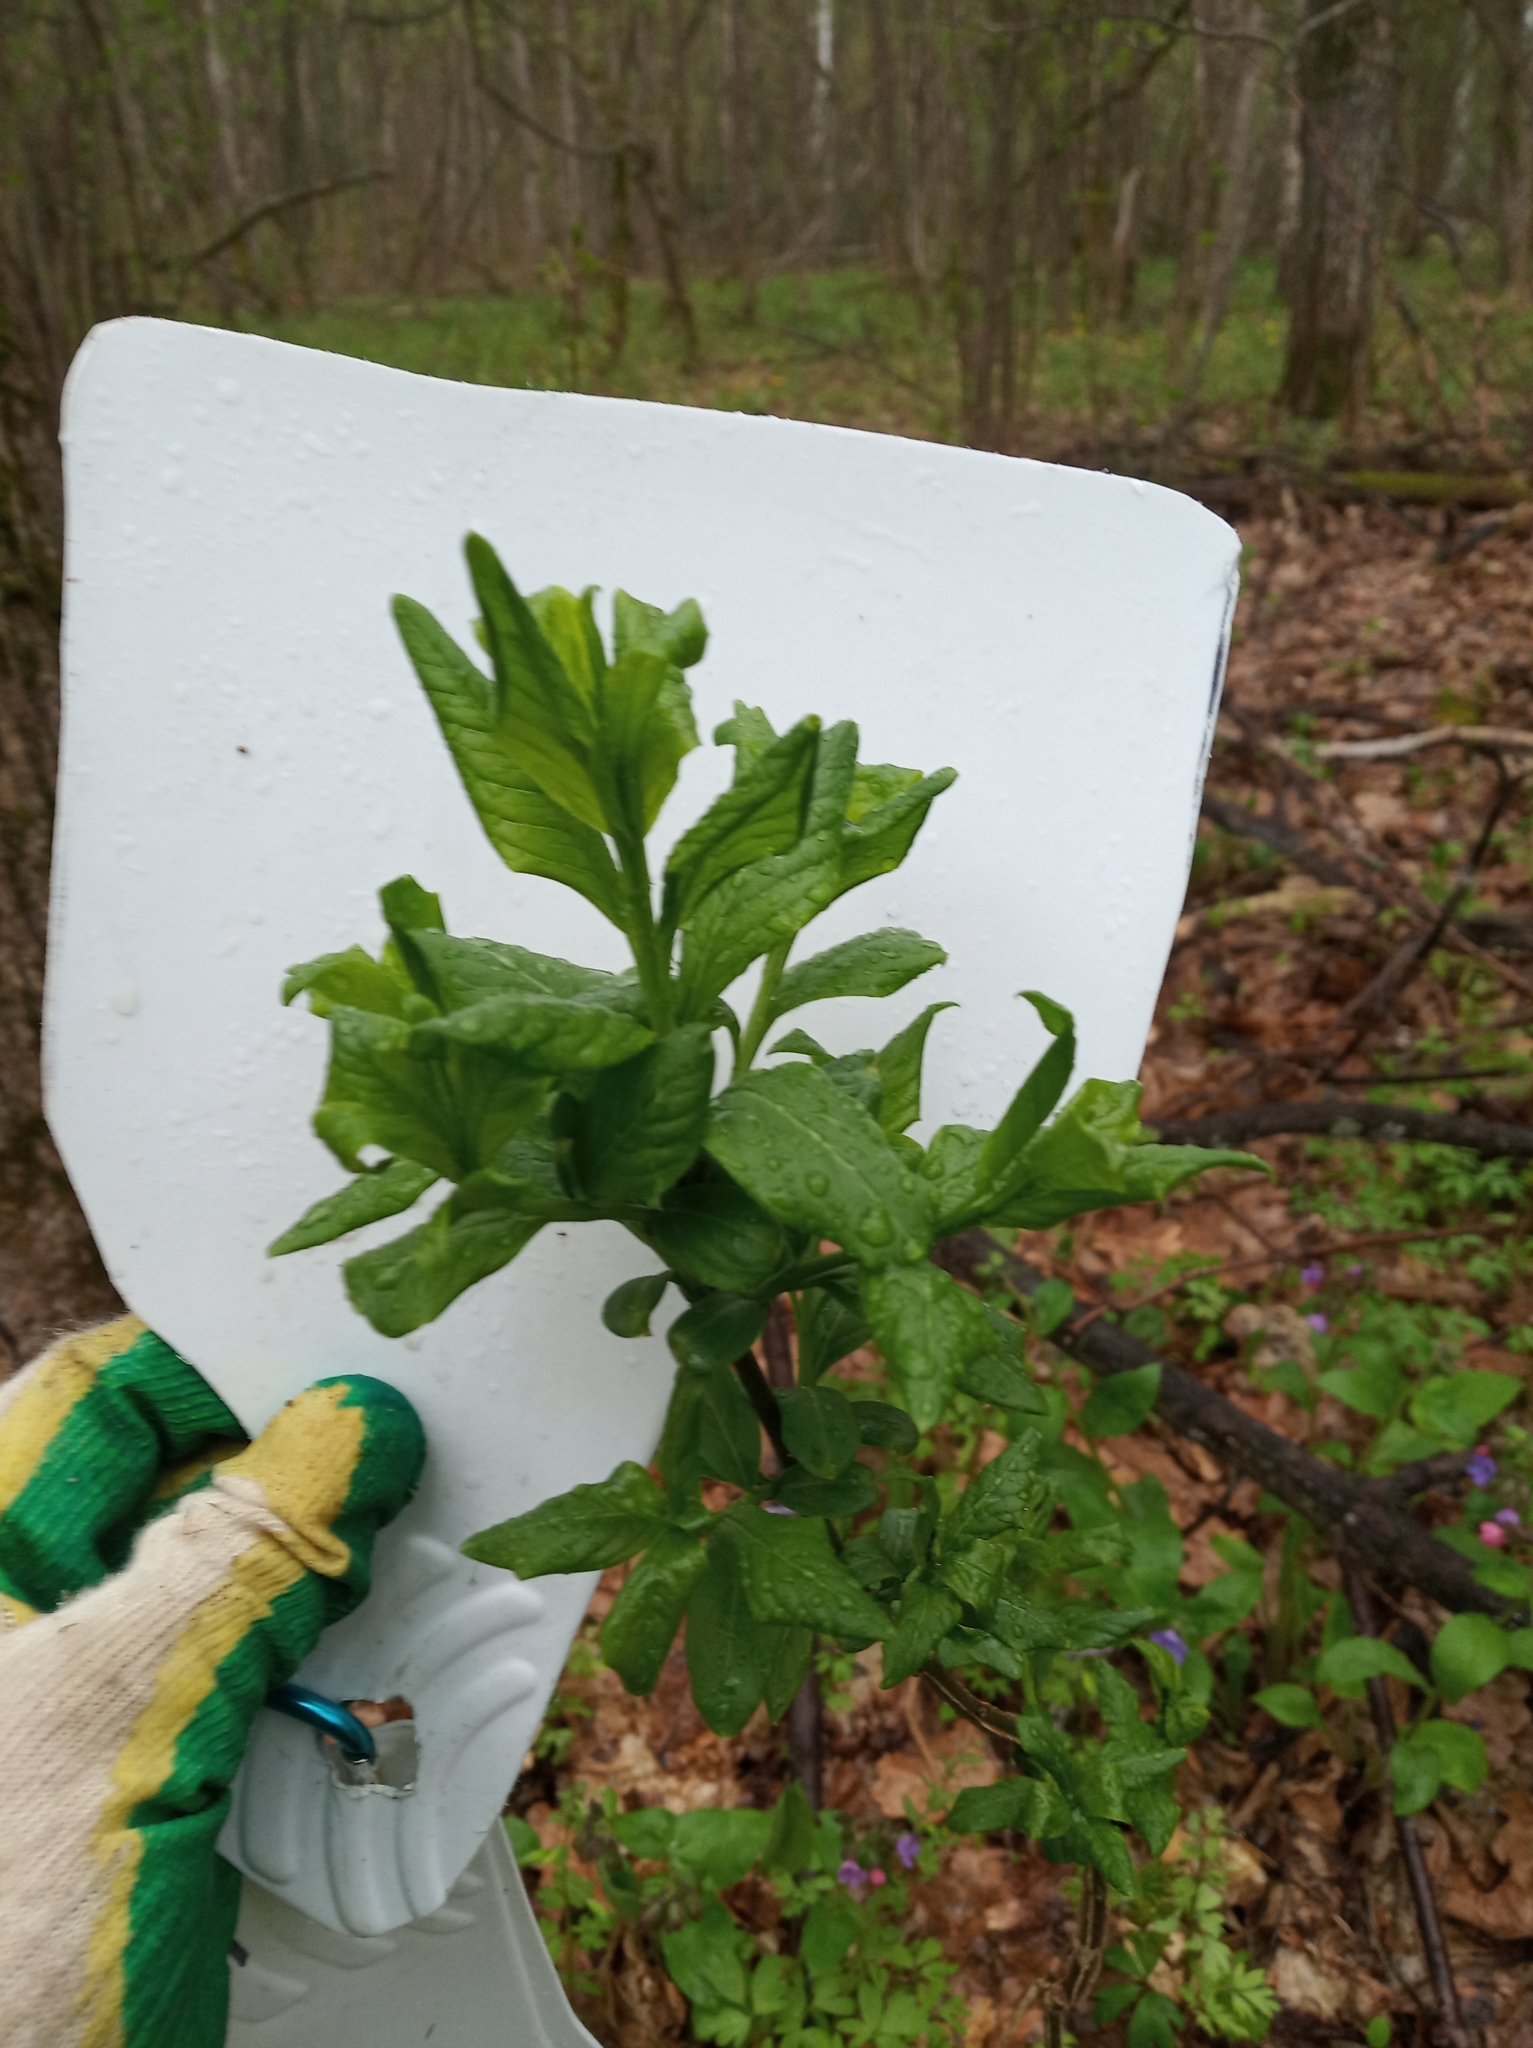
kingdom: Plantae
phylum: Tracheophyta
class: Magnoliopsida
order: Celastrales
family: Celastraceae
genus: Euonymus
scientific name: Euonymus europaeus
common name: Spindle
